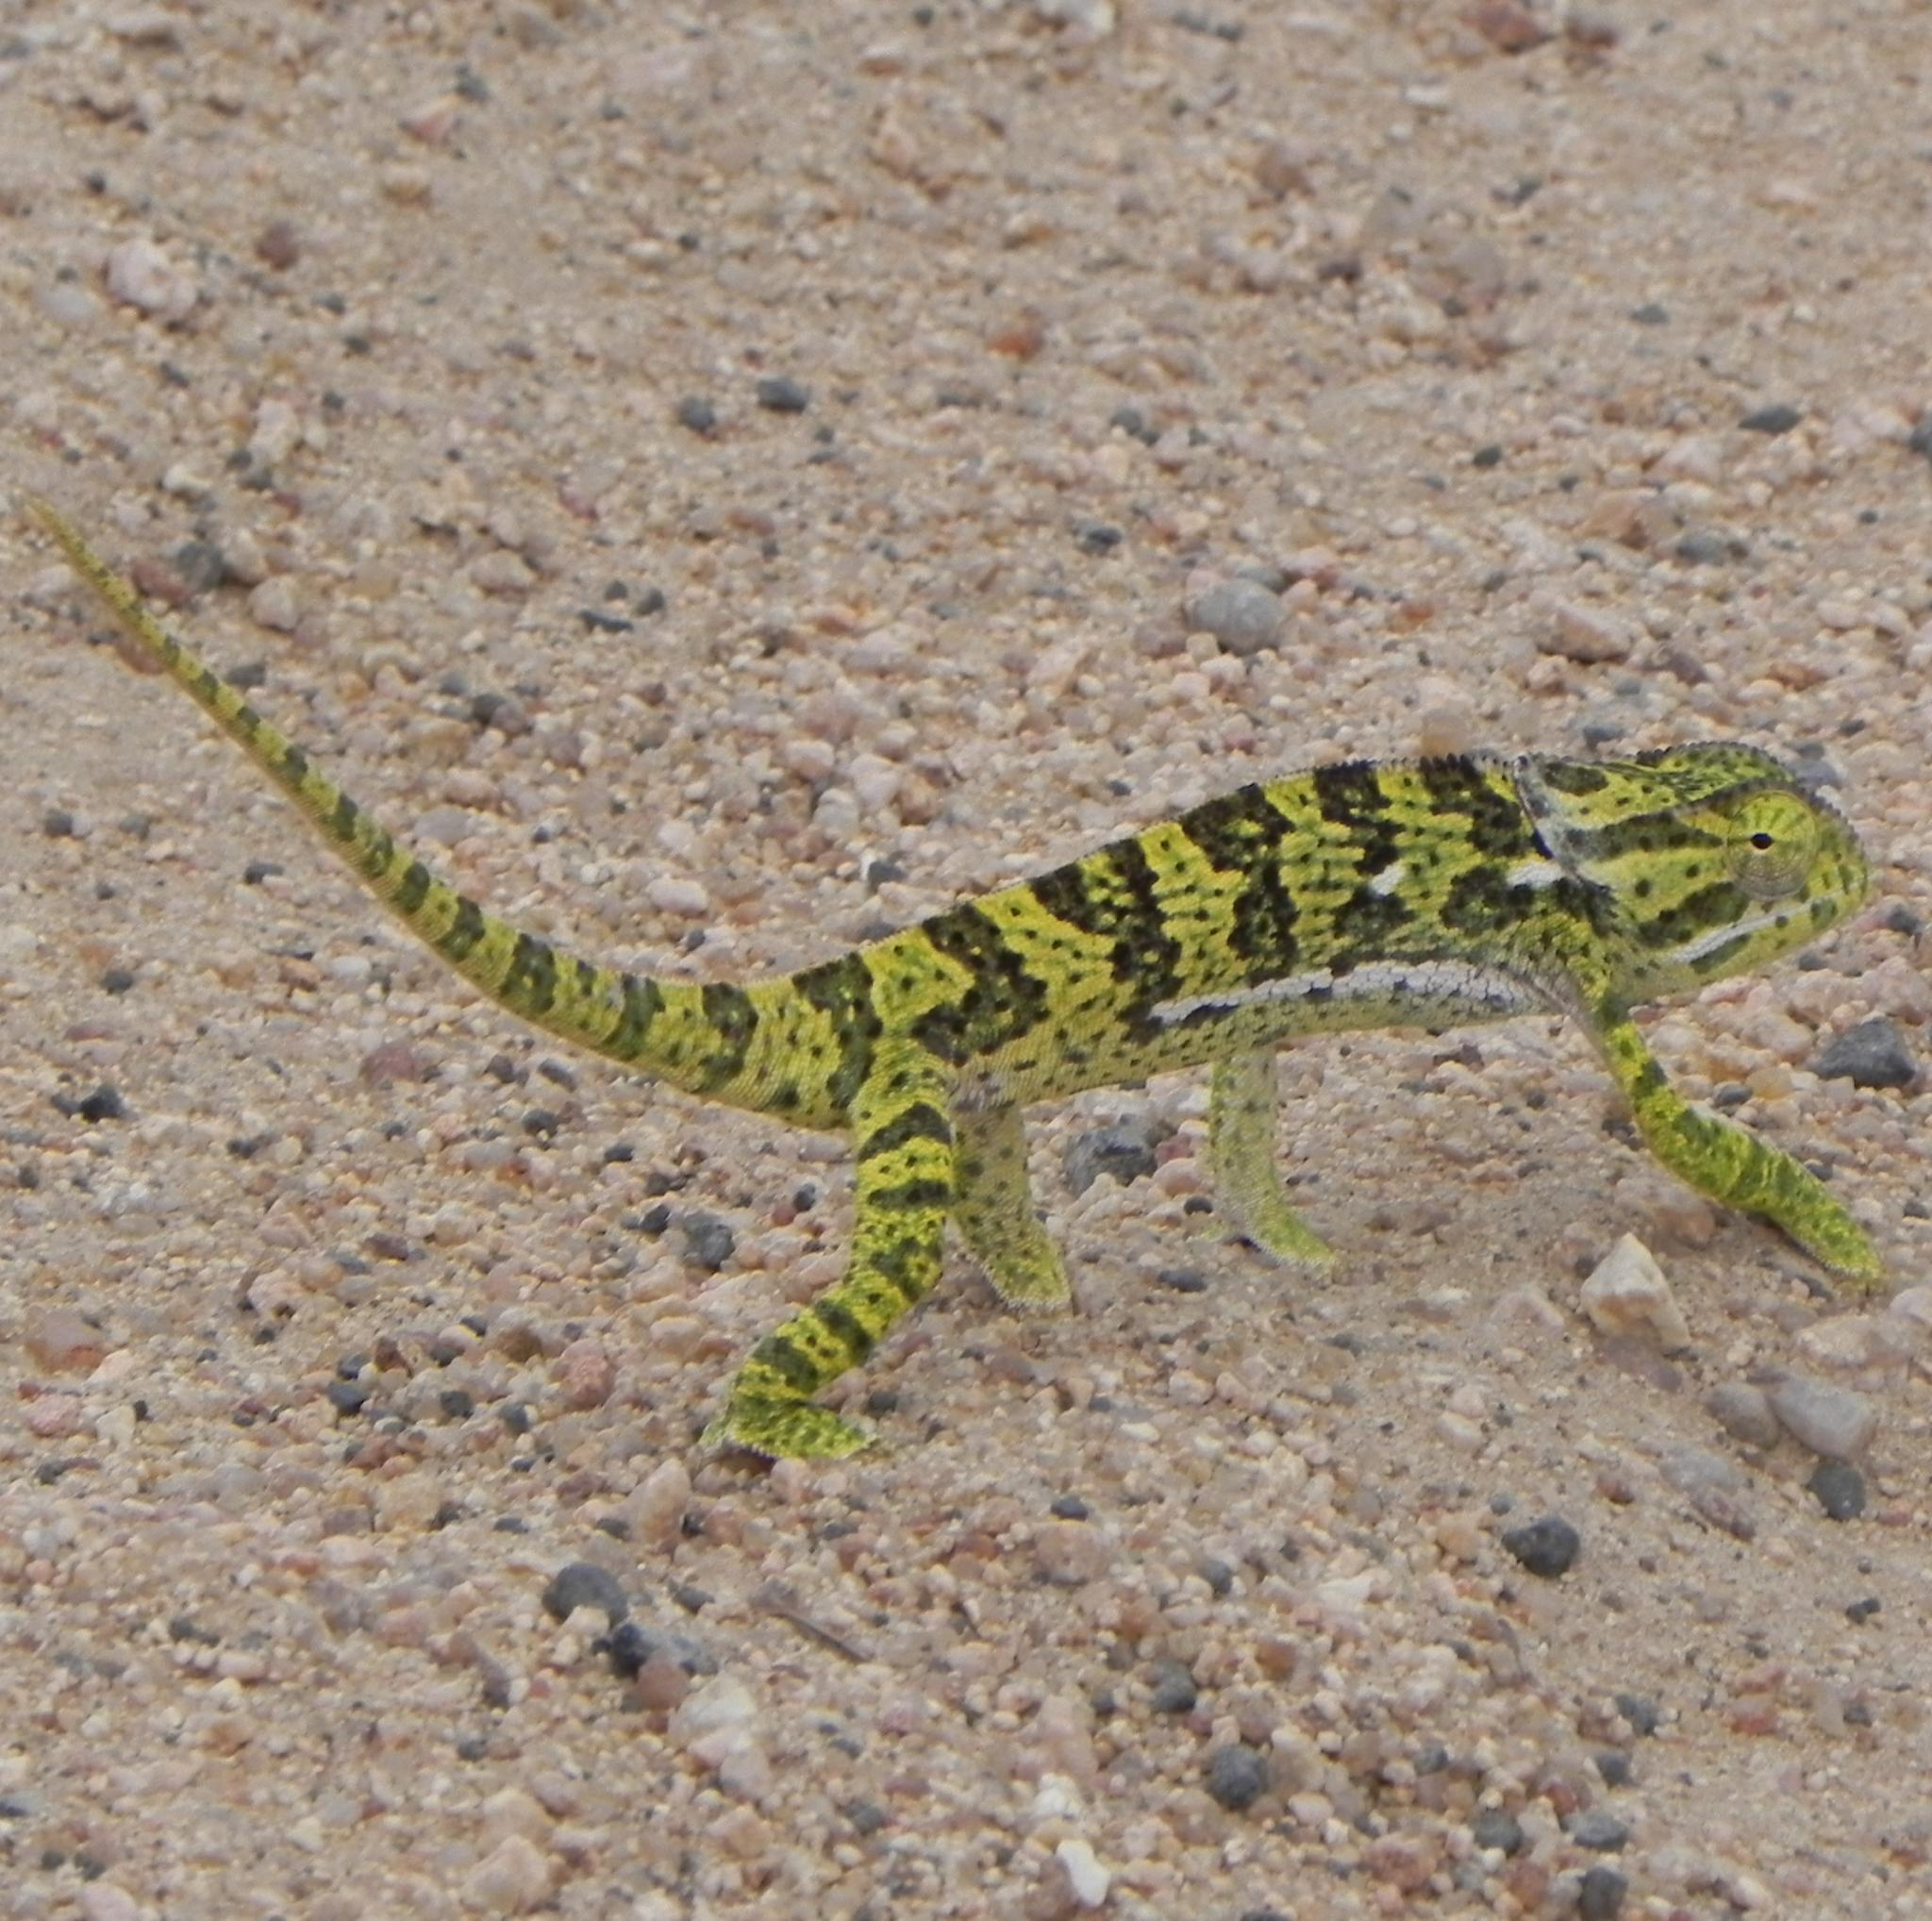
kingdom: Animalia
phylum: Chordata
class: Squamata
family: Chamaeleonidae
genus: Chamaeleo
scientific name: Chamaeleo dilepis
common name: Flapneck chameleon
